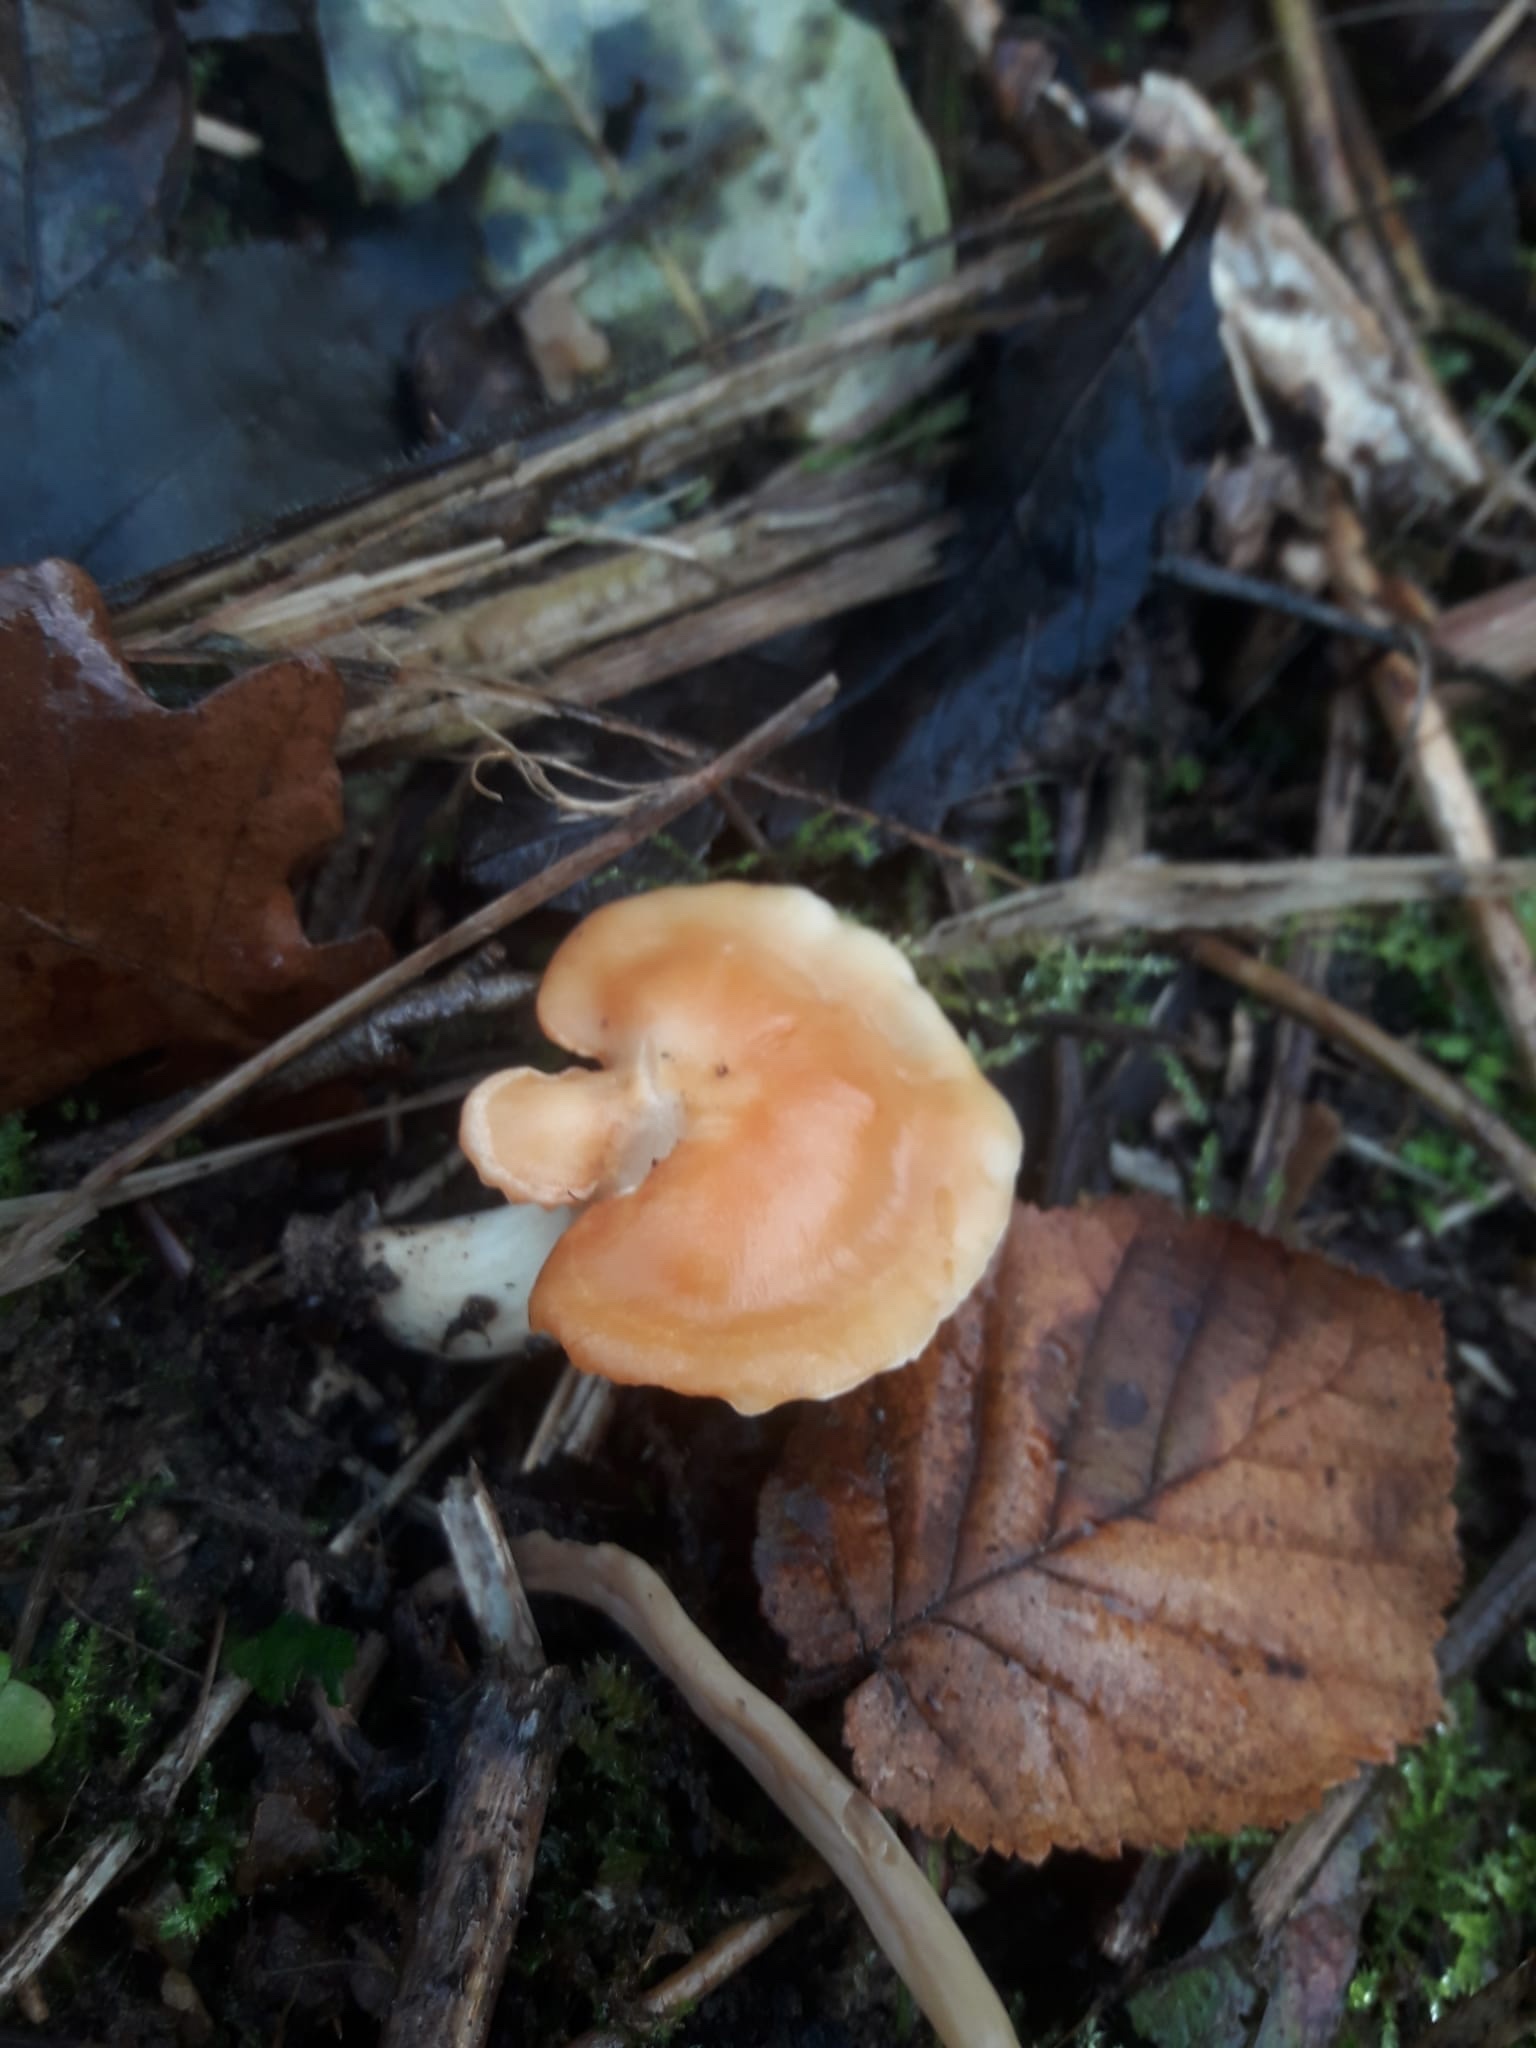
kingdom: Fungi
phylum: Basidiomycota
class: Agaricomycetes
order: Agaricales
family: Hygrophoraceae
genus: Cuphophyllus
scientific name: Cuphophyllus pratensis
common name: Meadow waxcap
